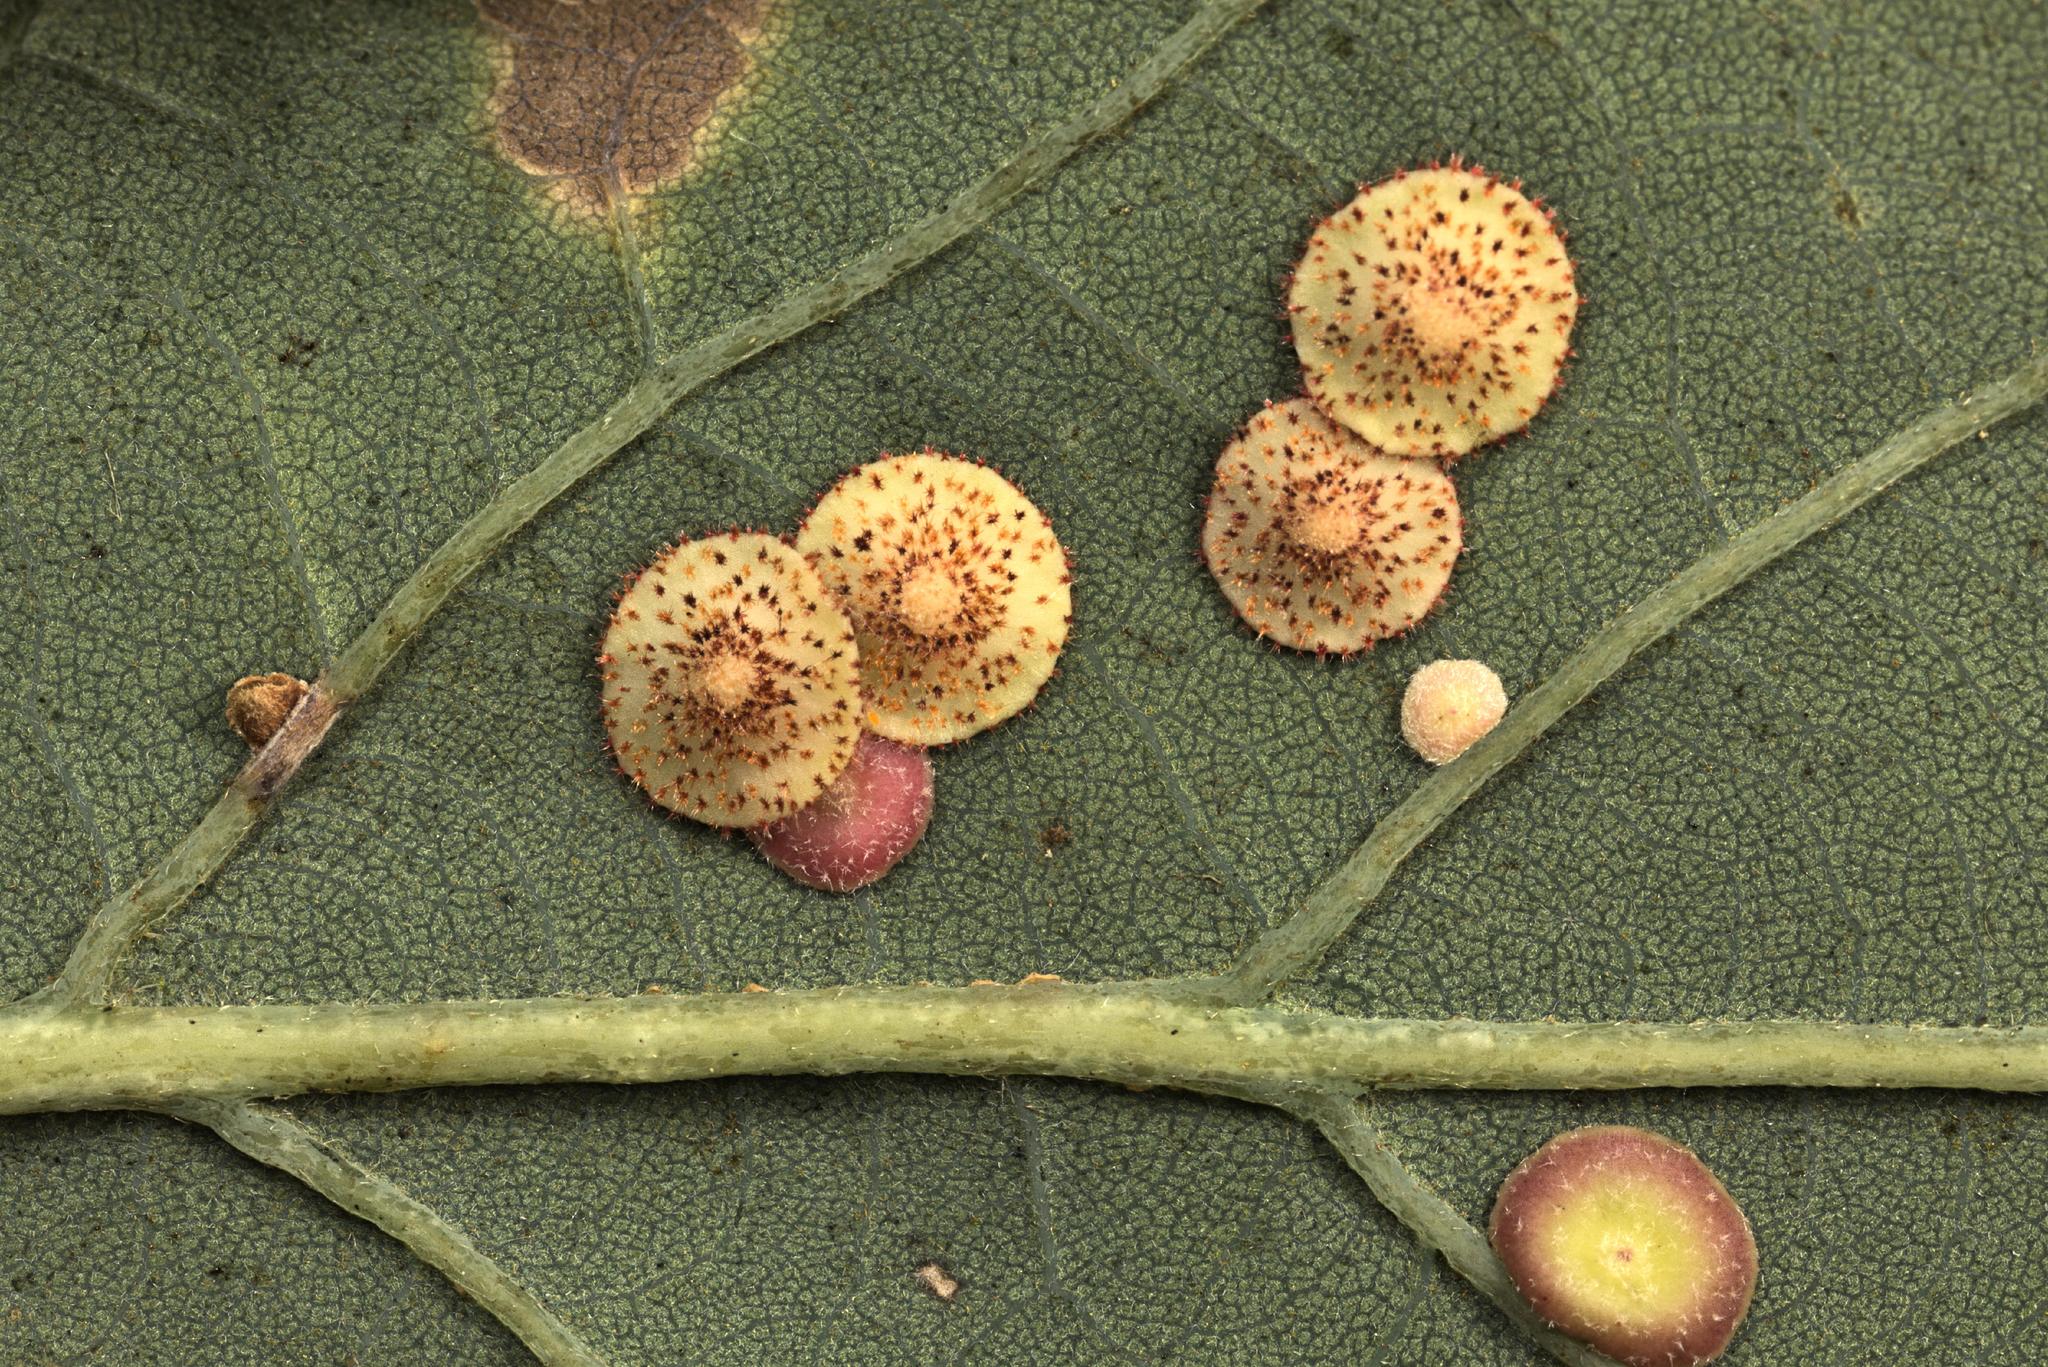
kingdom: Animalia
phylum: Arthropoda
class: Insecta
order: Hymenoptera
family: Cynipidae
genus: Neuroterus
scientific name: Neuroterus quercusbaccarum
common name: Common spangle gall
